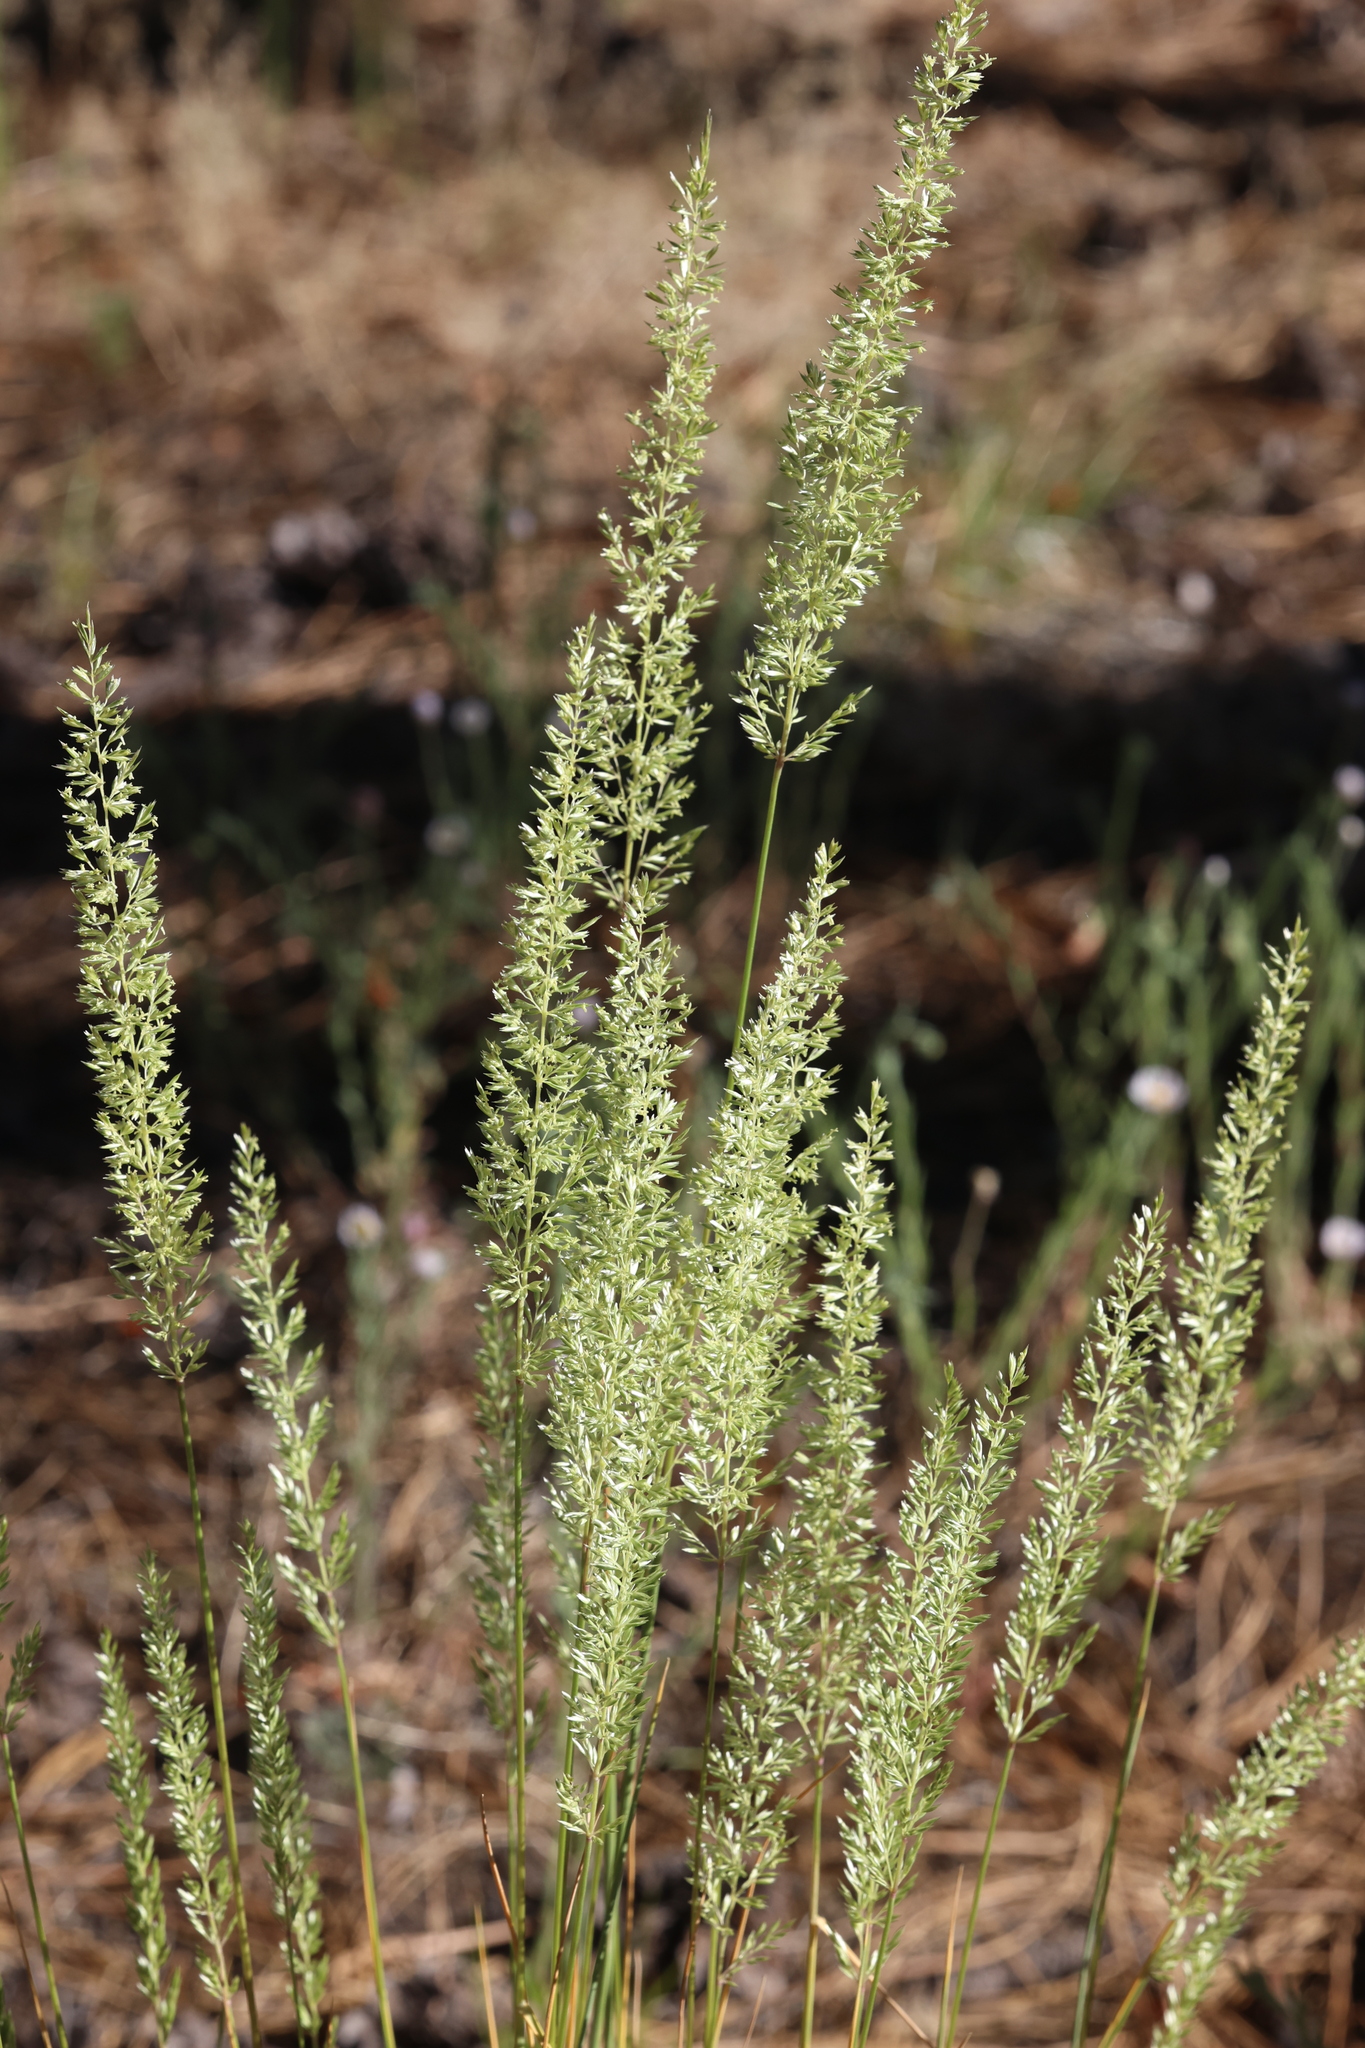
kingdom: Plantae
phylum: Tracheophyta
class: Liliopsida
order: Poales
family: Poaceae
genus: Koeleria
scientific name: Koeleria macrantha
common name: Crested hair-grass
